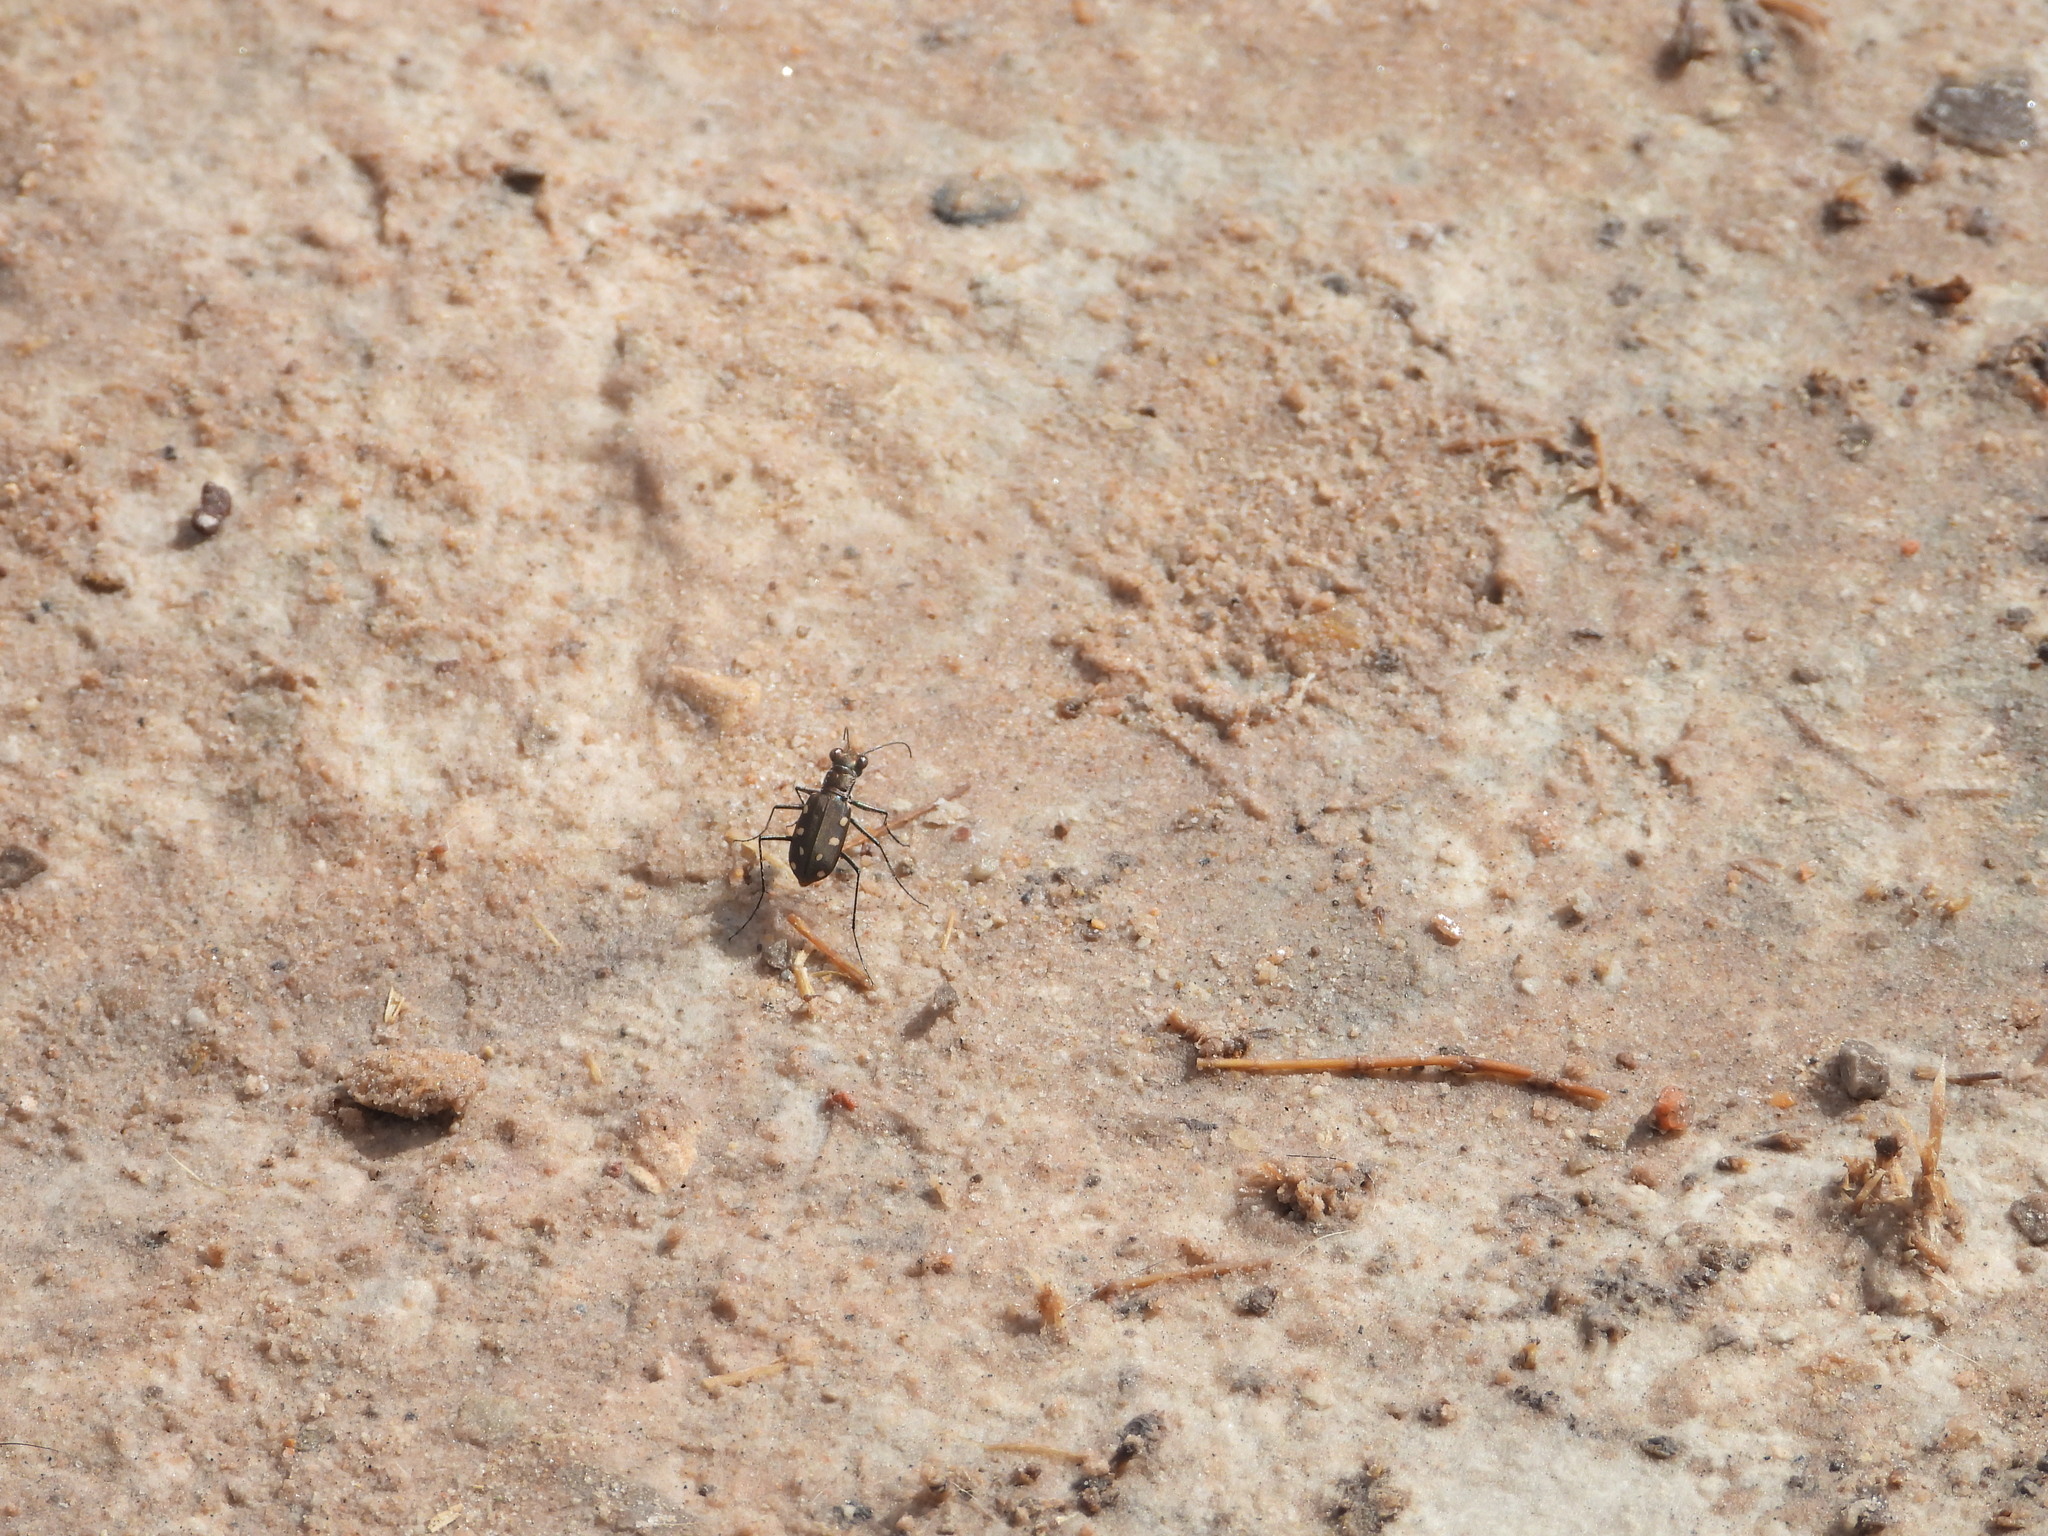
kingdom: Animalia
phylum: Arthropoda
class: Insecta
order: Coleoptera
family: Carabidae
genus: Cicindela
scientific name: Cicindela ocellata
